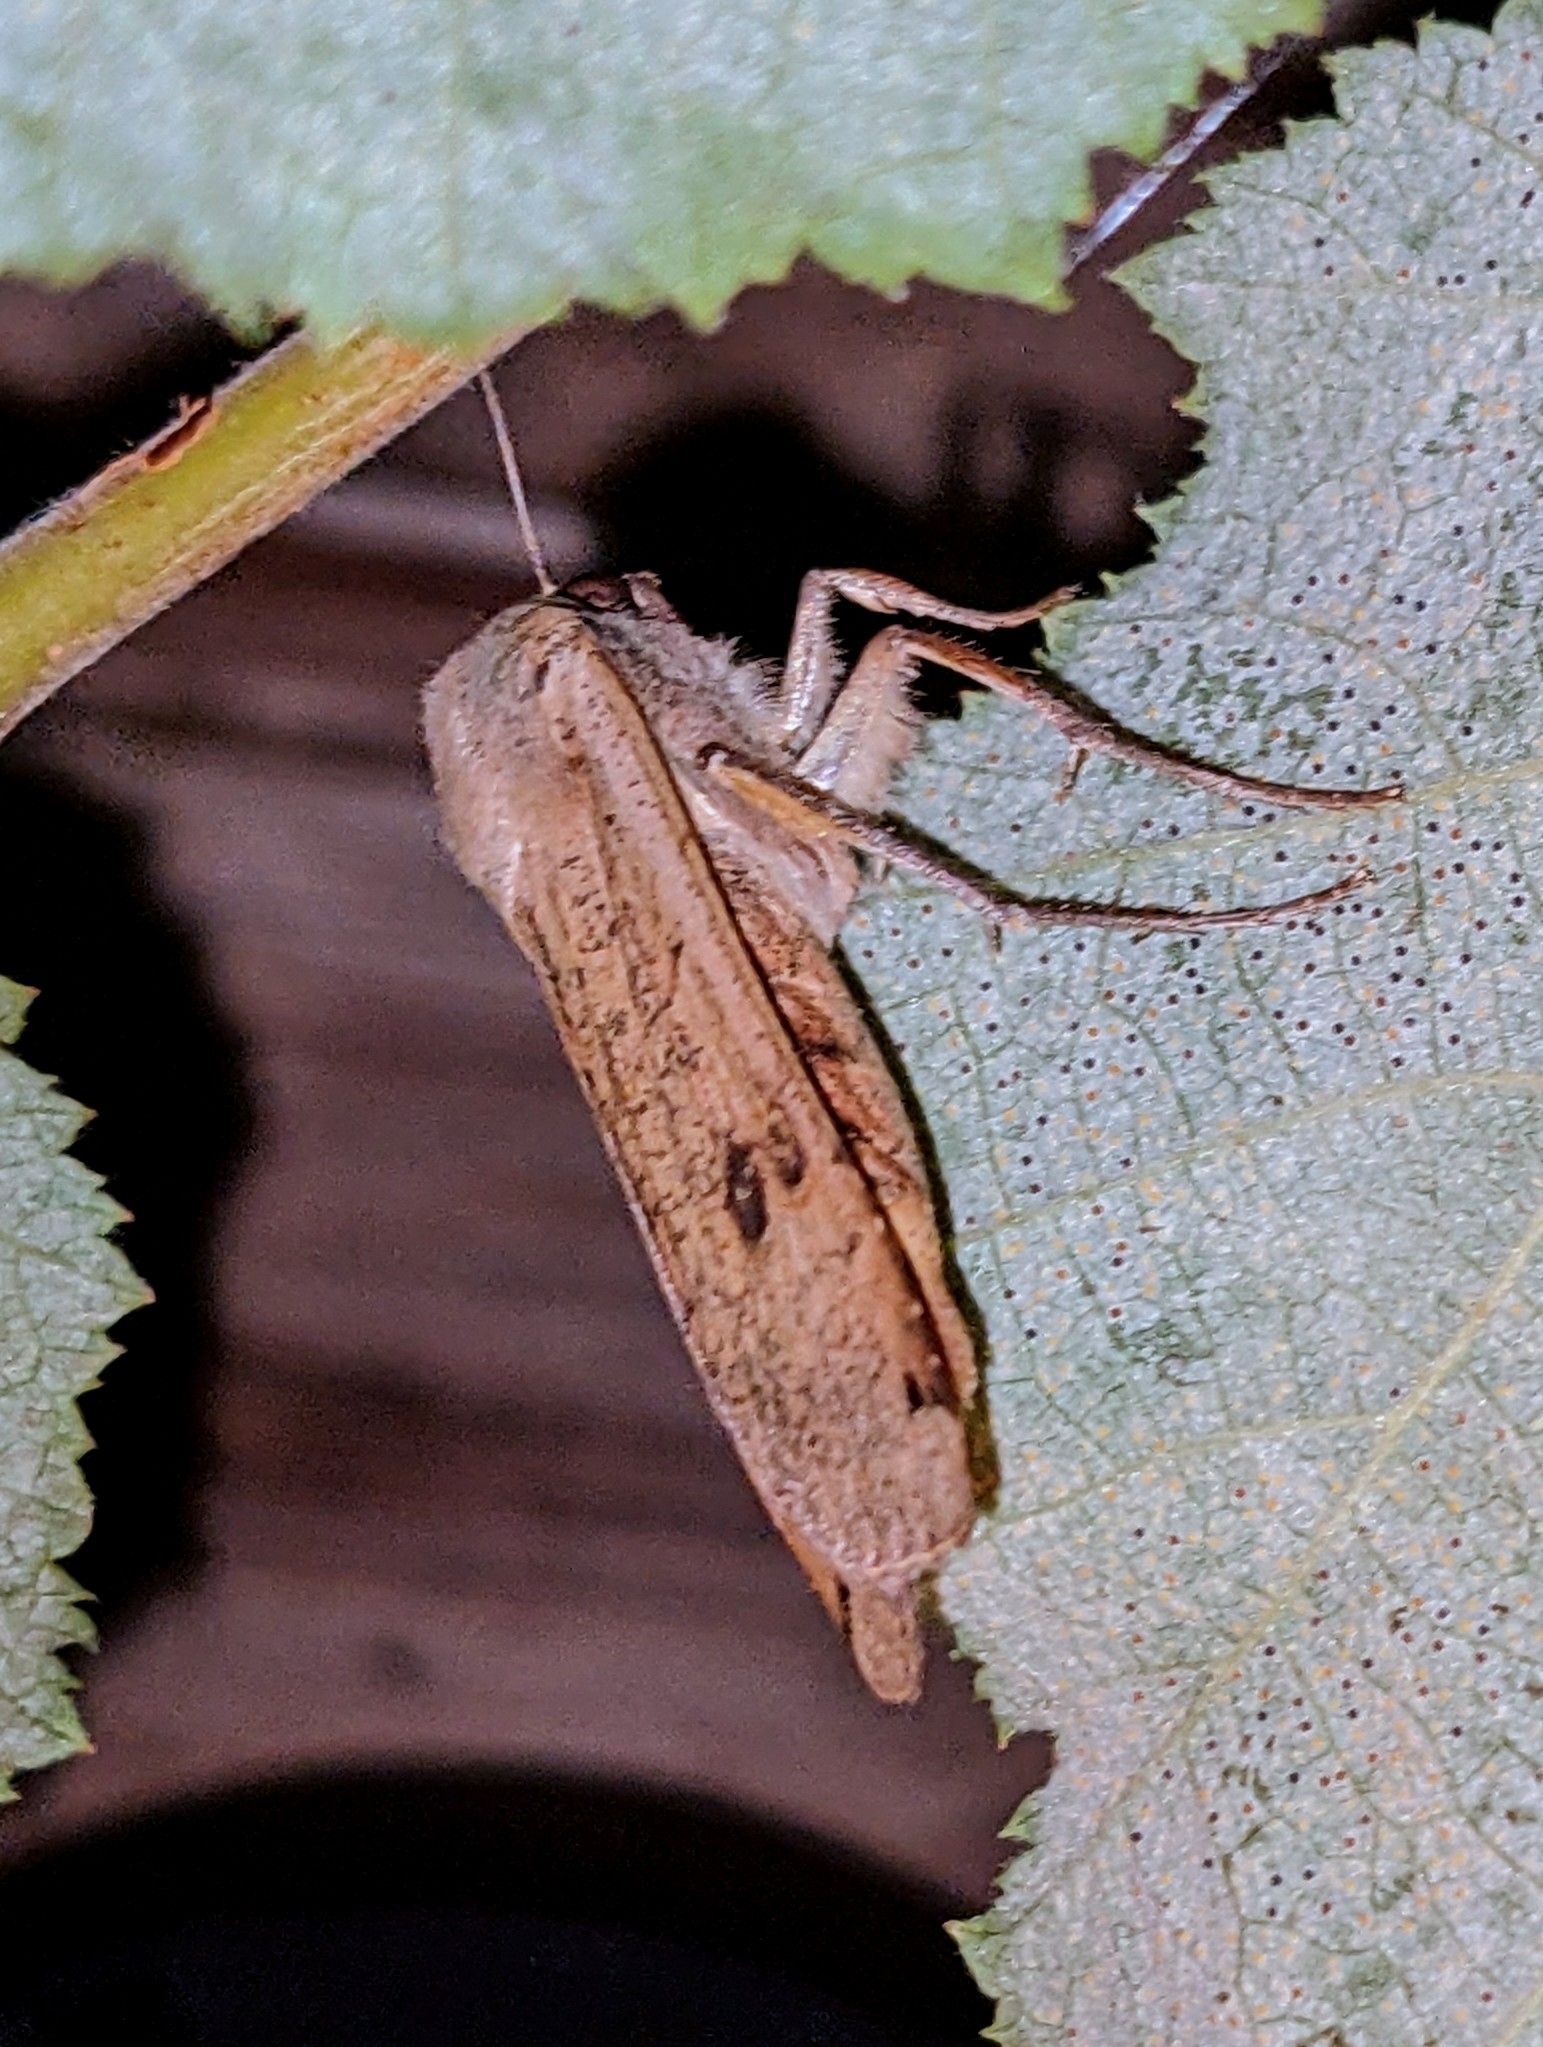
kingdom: Animalia
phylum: Arthropoda
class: Insecta
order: Lepidoptera
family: Noctuidae
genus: Noctua
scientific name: Noctua pronuba
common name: Large yellow underwing
